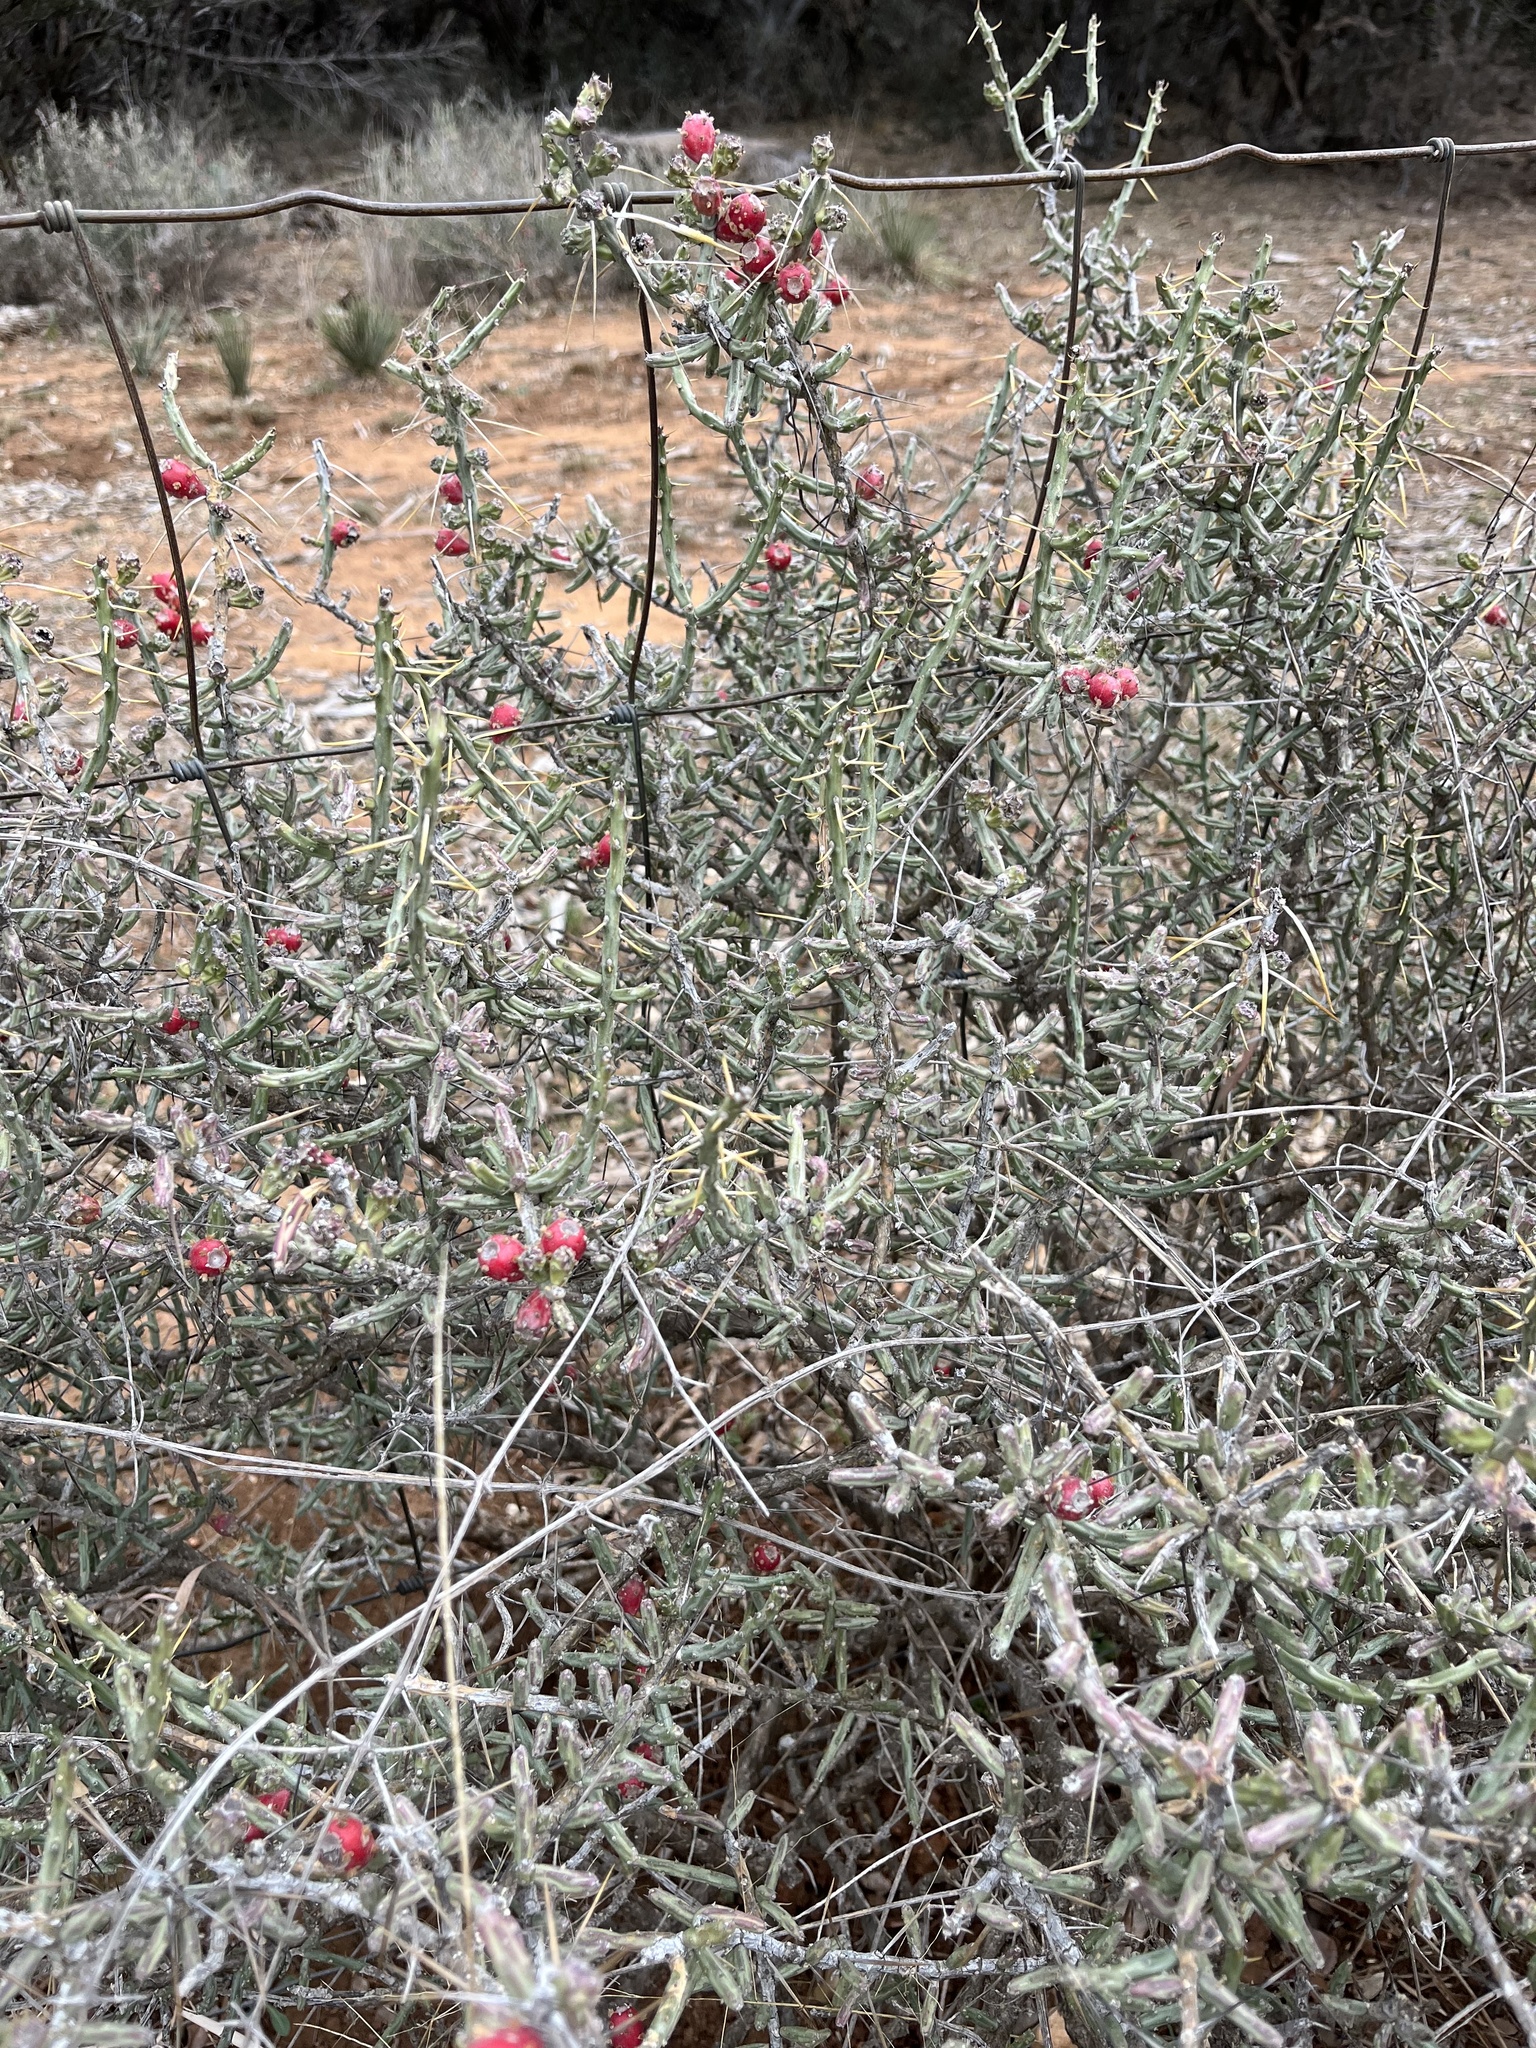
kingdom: Plantae
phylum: Tracheophyta
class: Magnoliopsida
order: Caryophyllales
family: Cactaceae
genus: Cylindropuntia
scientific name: Cylindropuntia leptocaulis
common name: Christmas cactus
